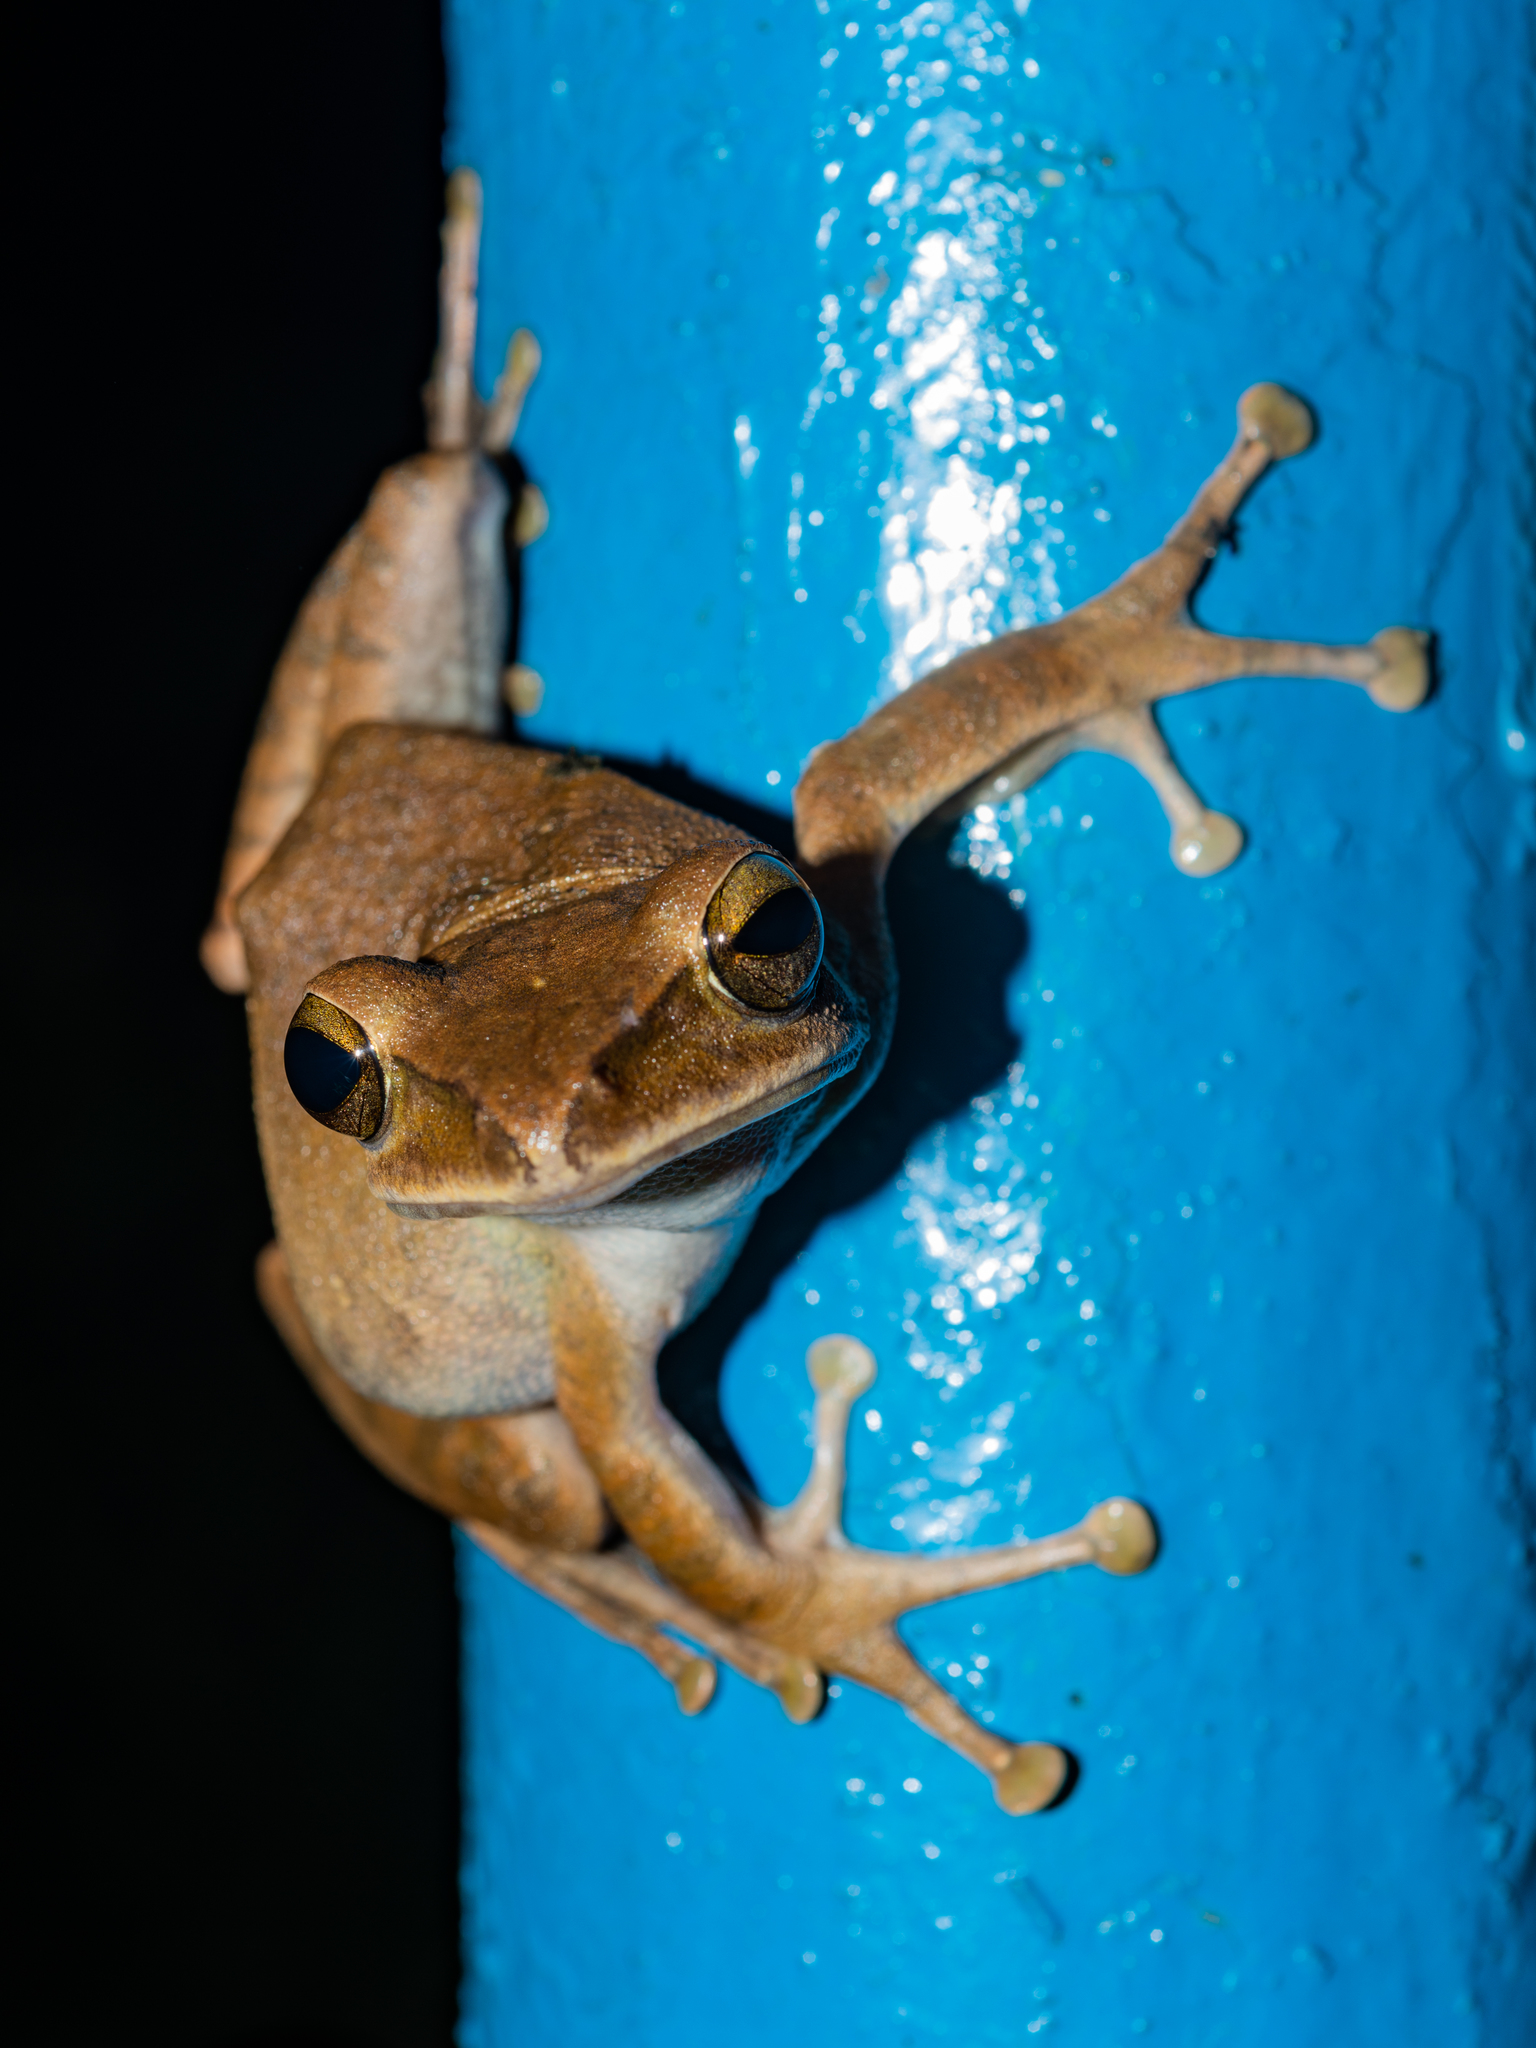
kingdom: Animalia
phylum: Chordata
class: Amphibia
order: Anura
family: Rhacophoridae
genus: Polypedates
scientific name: Polypedates megacephalus
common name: Hong kong whipping frog
